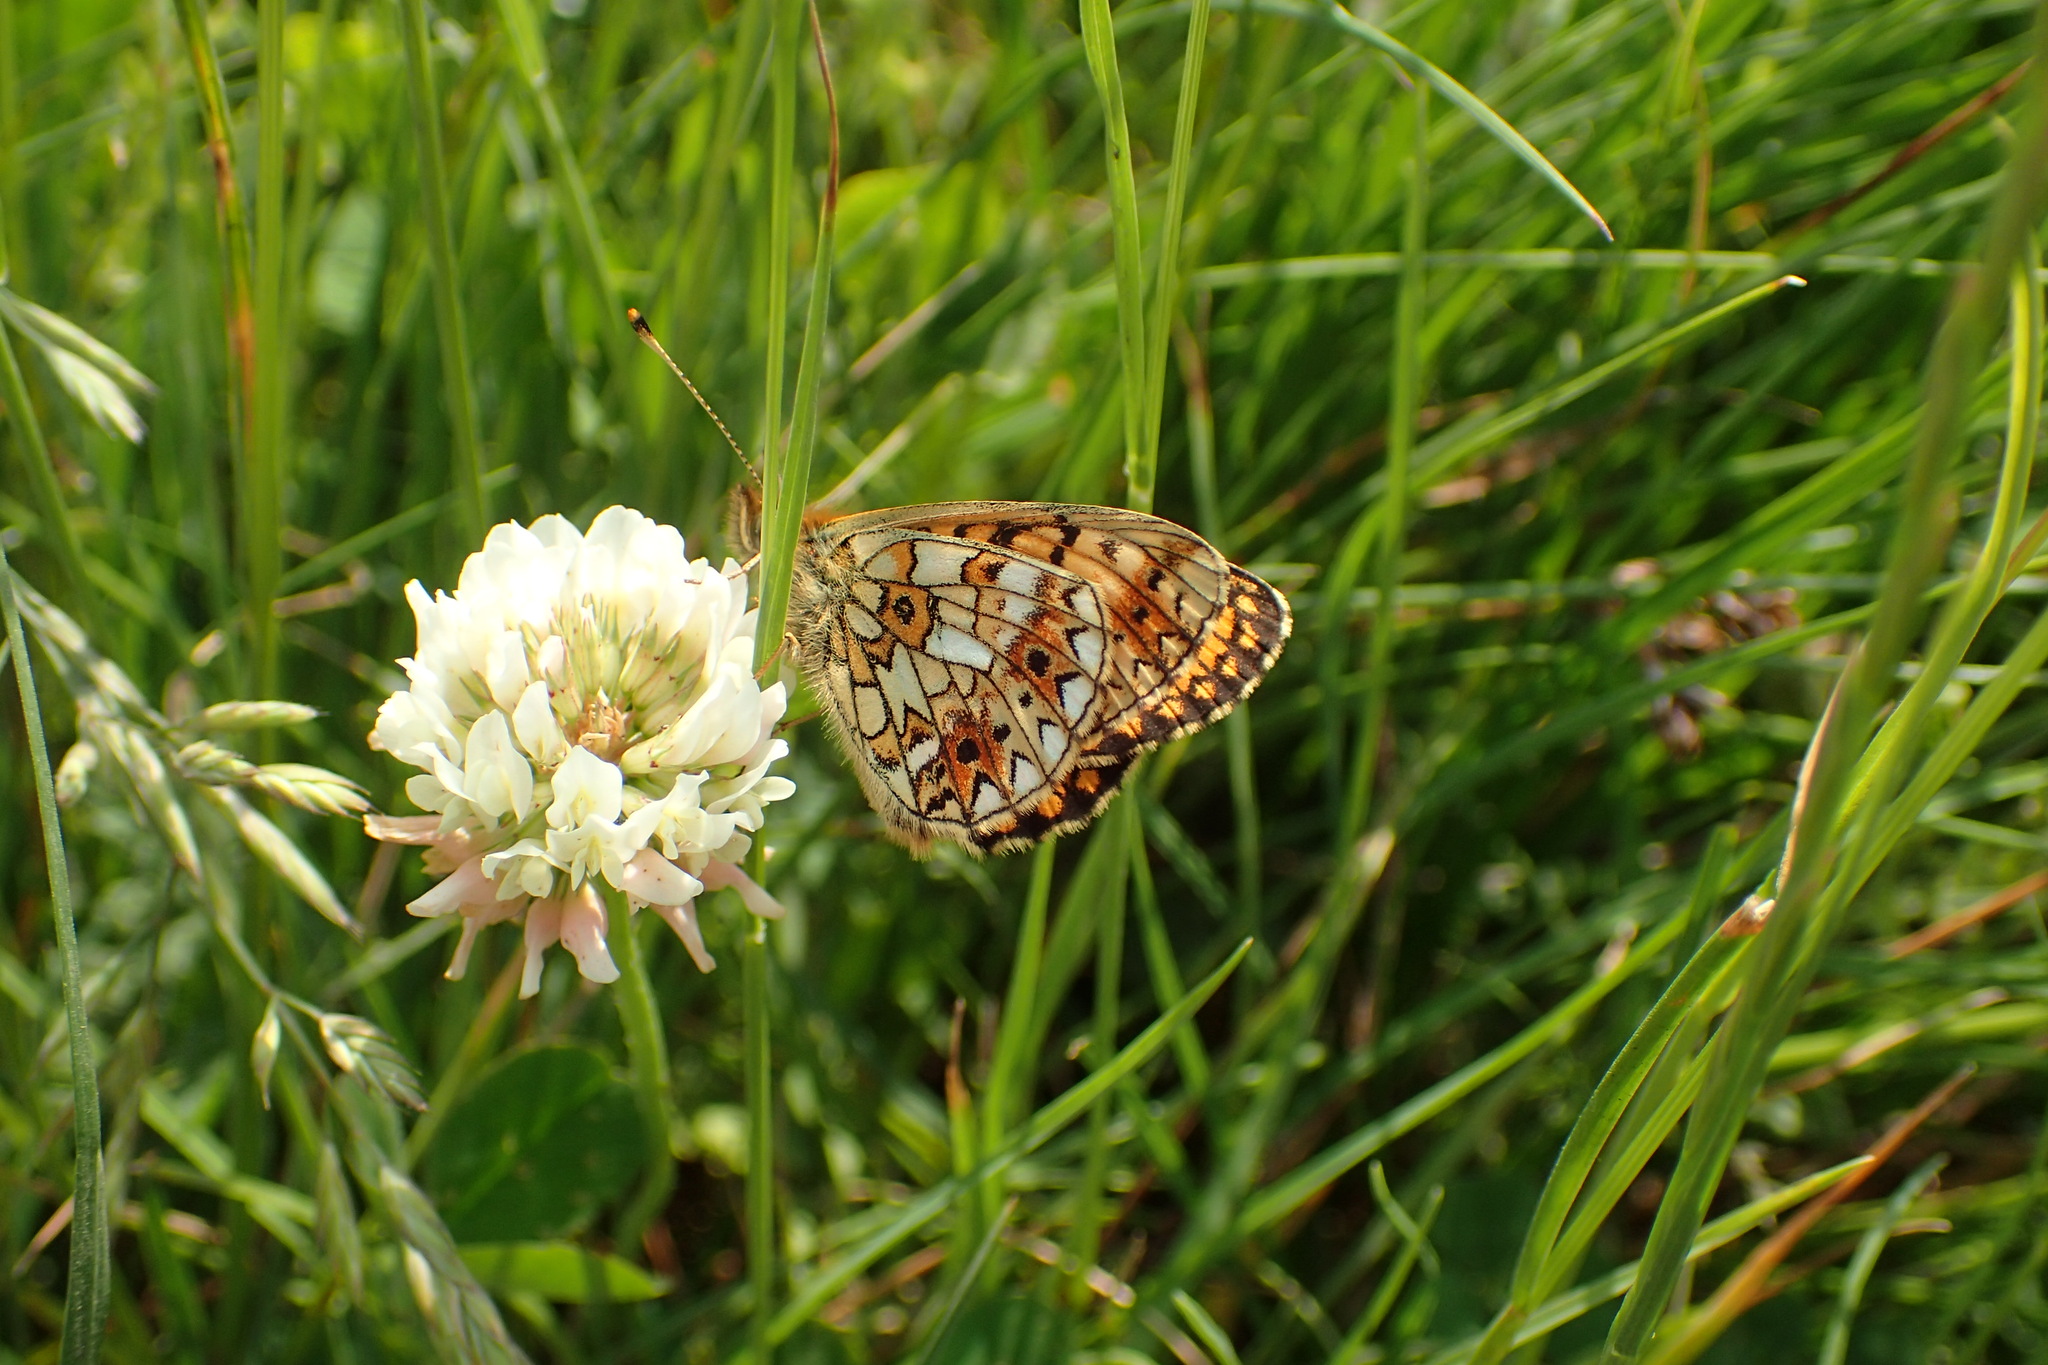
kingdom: Animalia
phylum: Arthropoda
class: Insecta
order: Lepidoptera
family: Nymphalidae
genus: Boloria
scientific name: Boloria selene
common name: Small pearl-bordered fritillary
